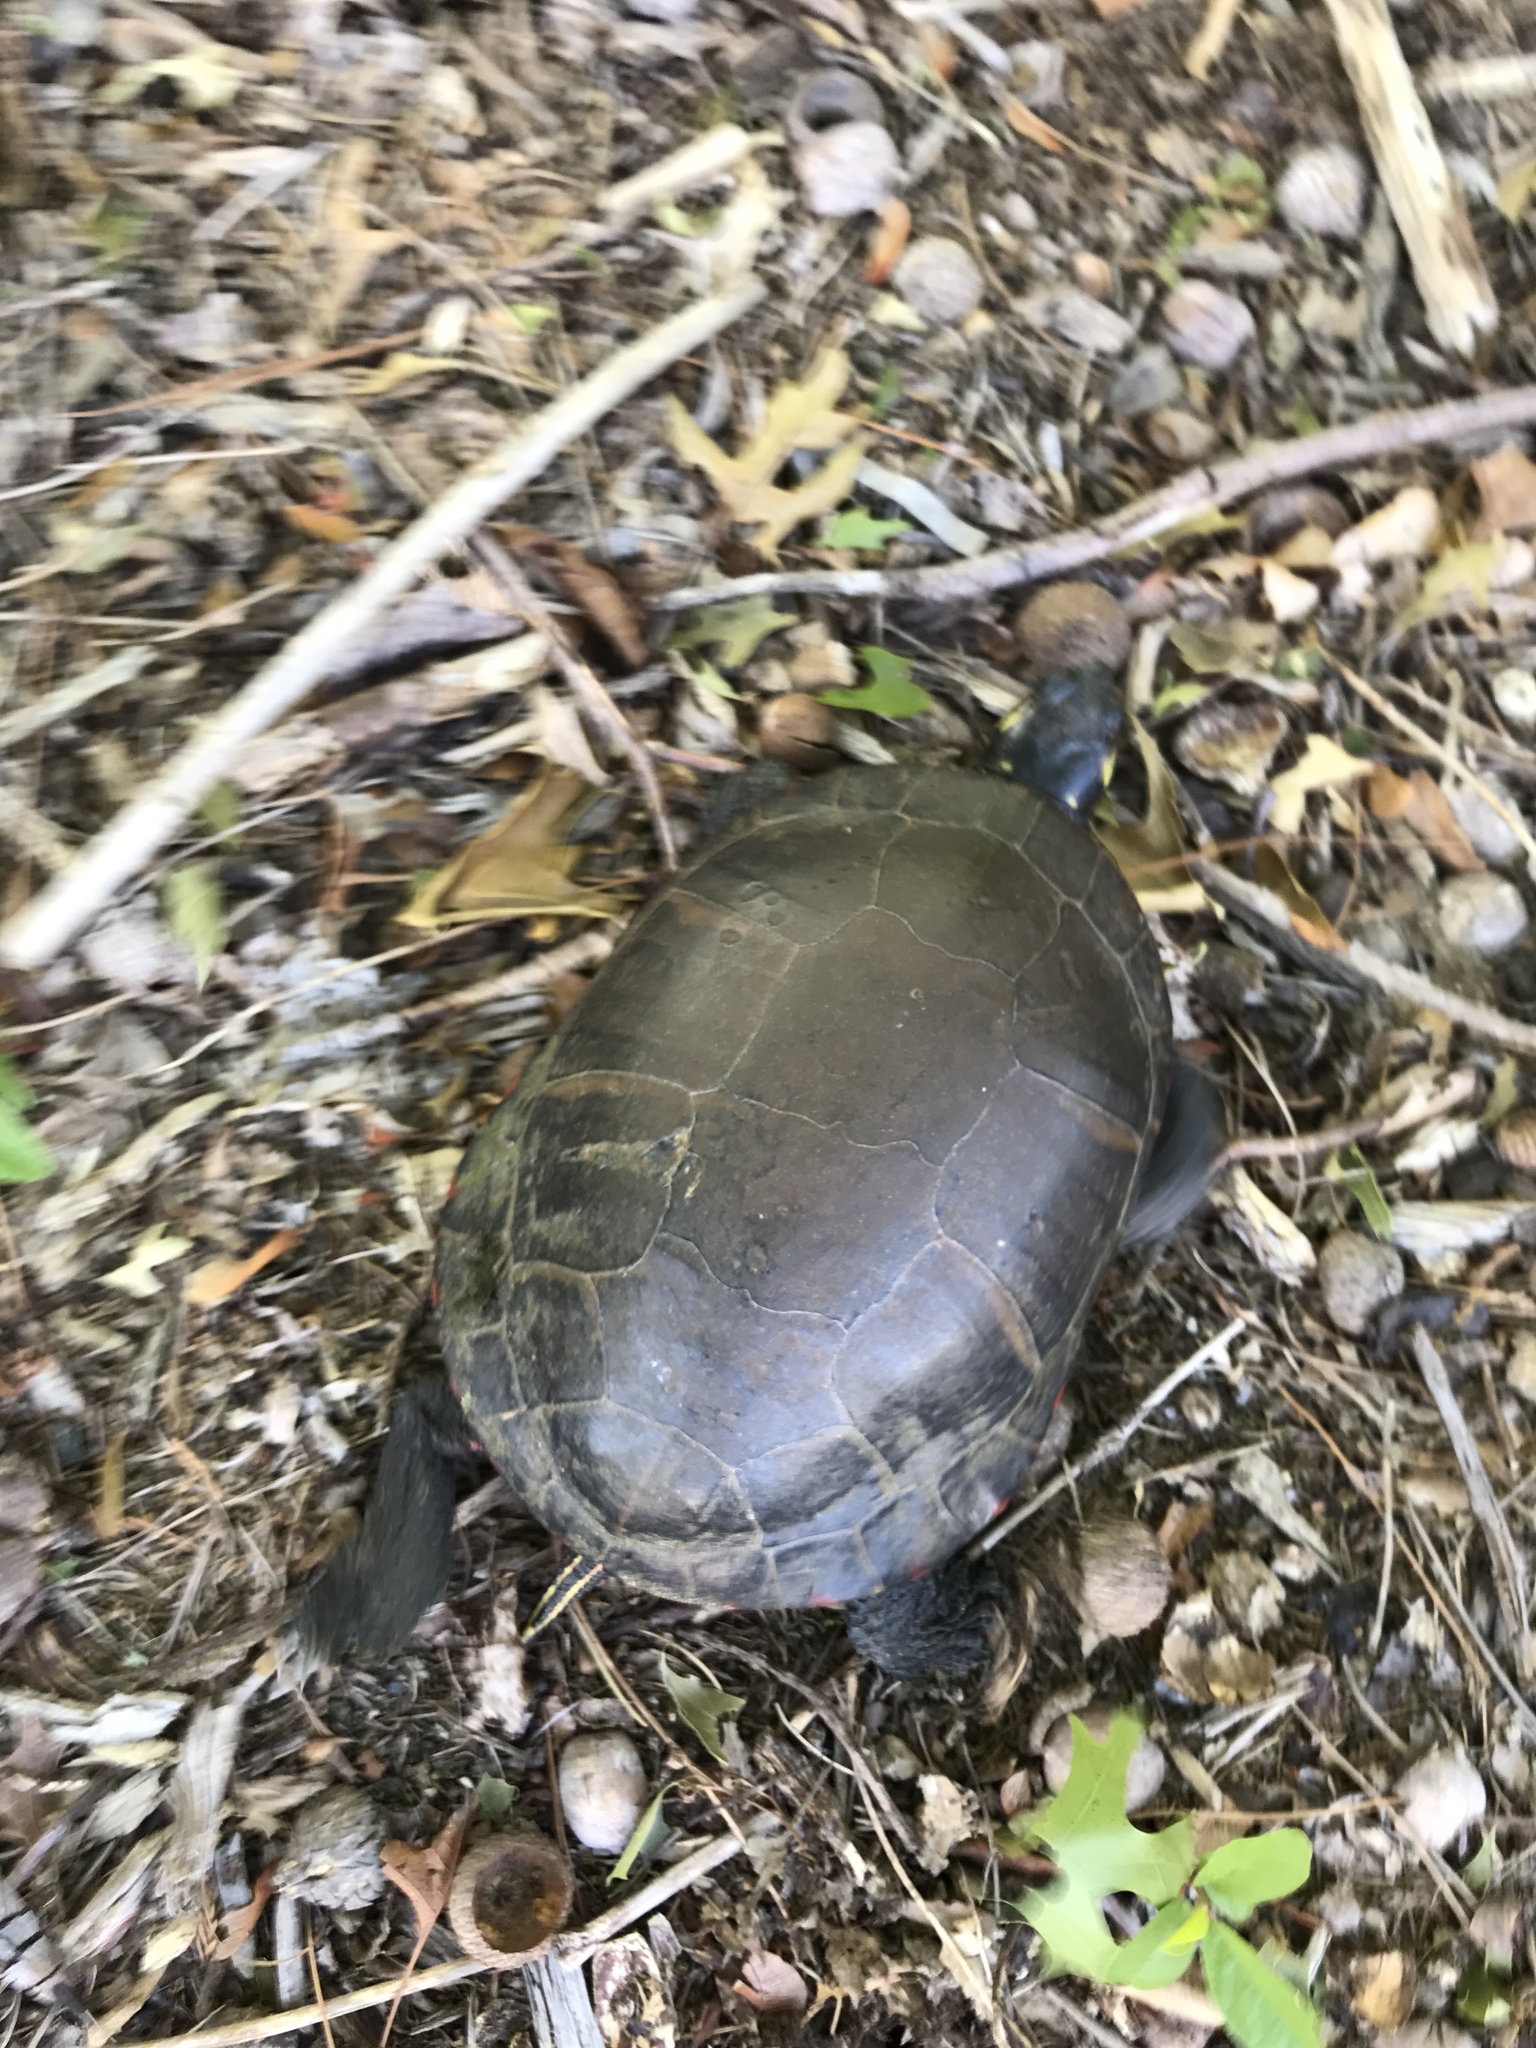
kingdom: Animalia
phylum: Chordata
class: Testudines
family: Emydidae
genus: Chrysemys
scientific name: Chrysemys picta
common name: Painted turtle
